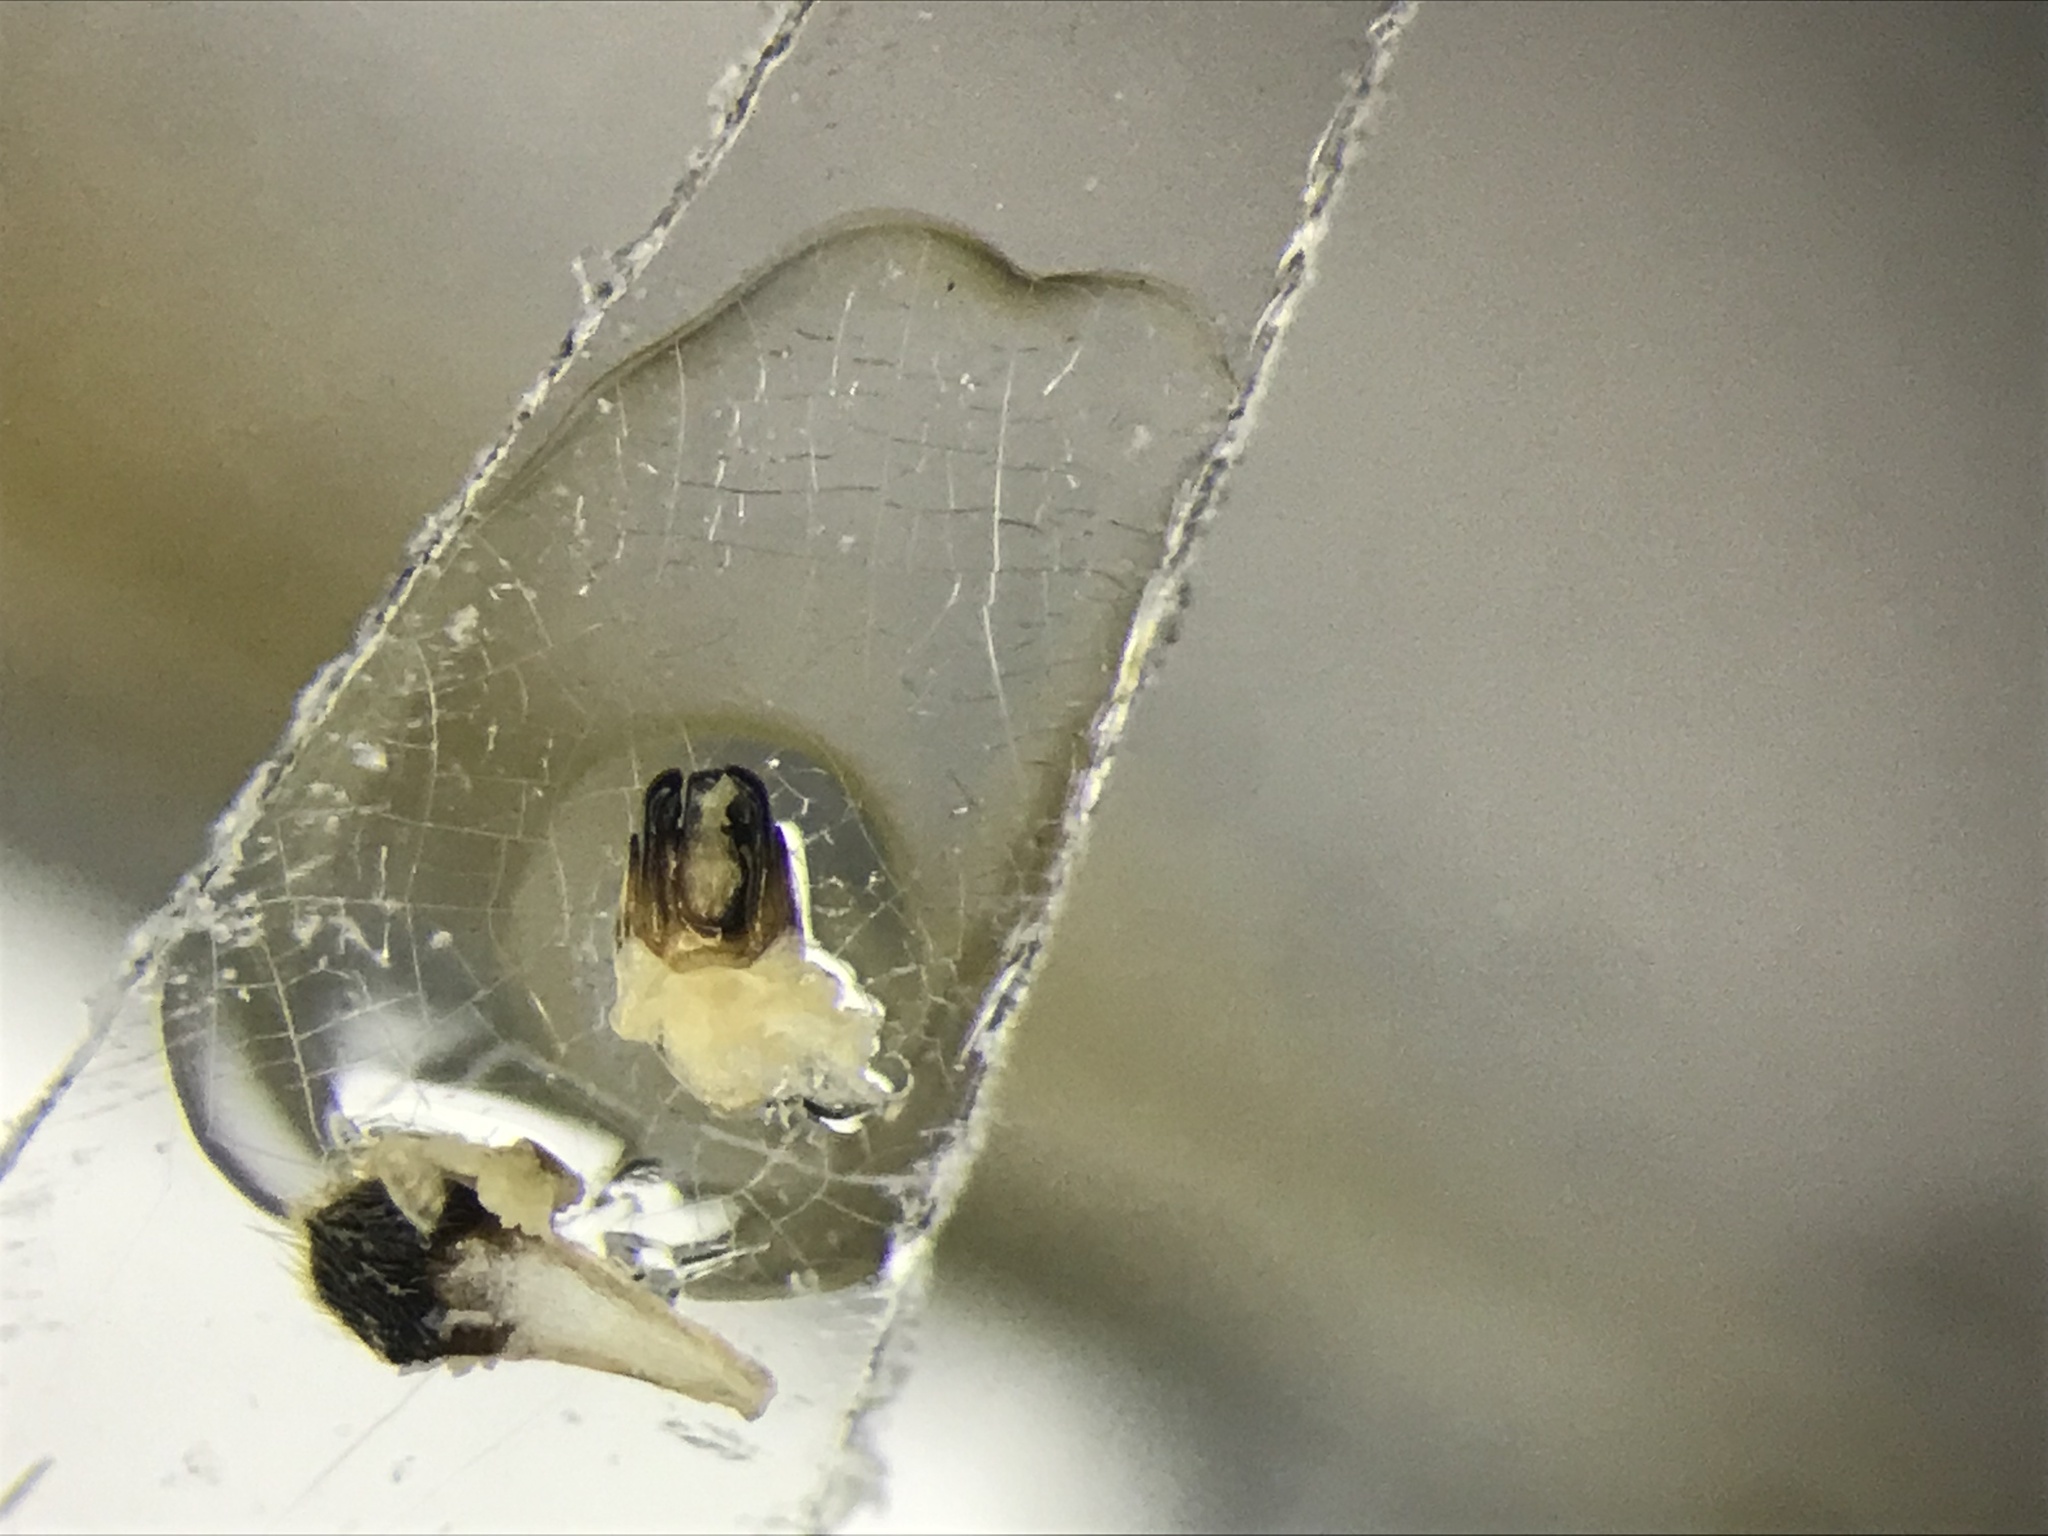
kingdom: Animalia
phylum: Arthropoda
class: Insecta
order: Coleoptera
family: Lampyridae
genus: Photinus
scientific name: Photinus indictus
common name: Silent firefly
